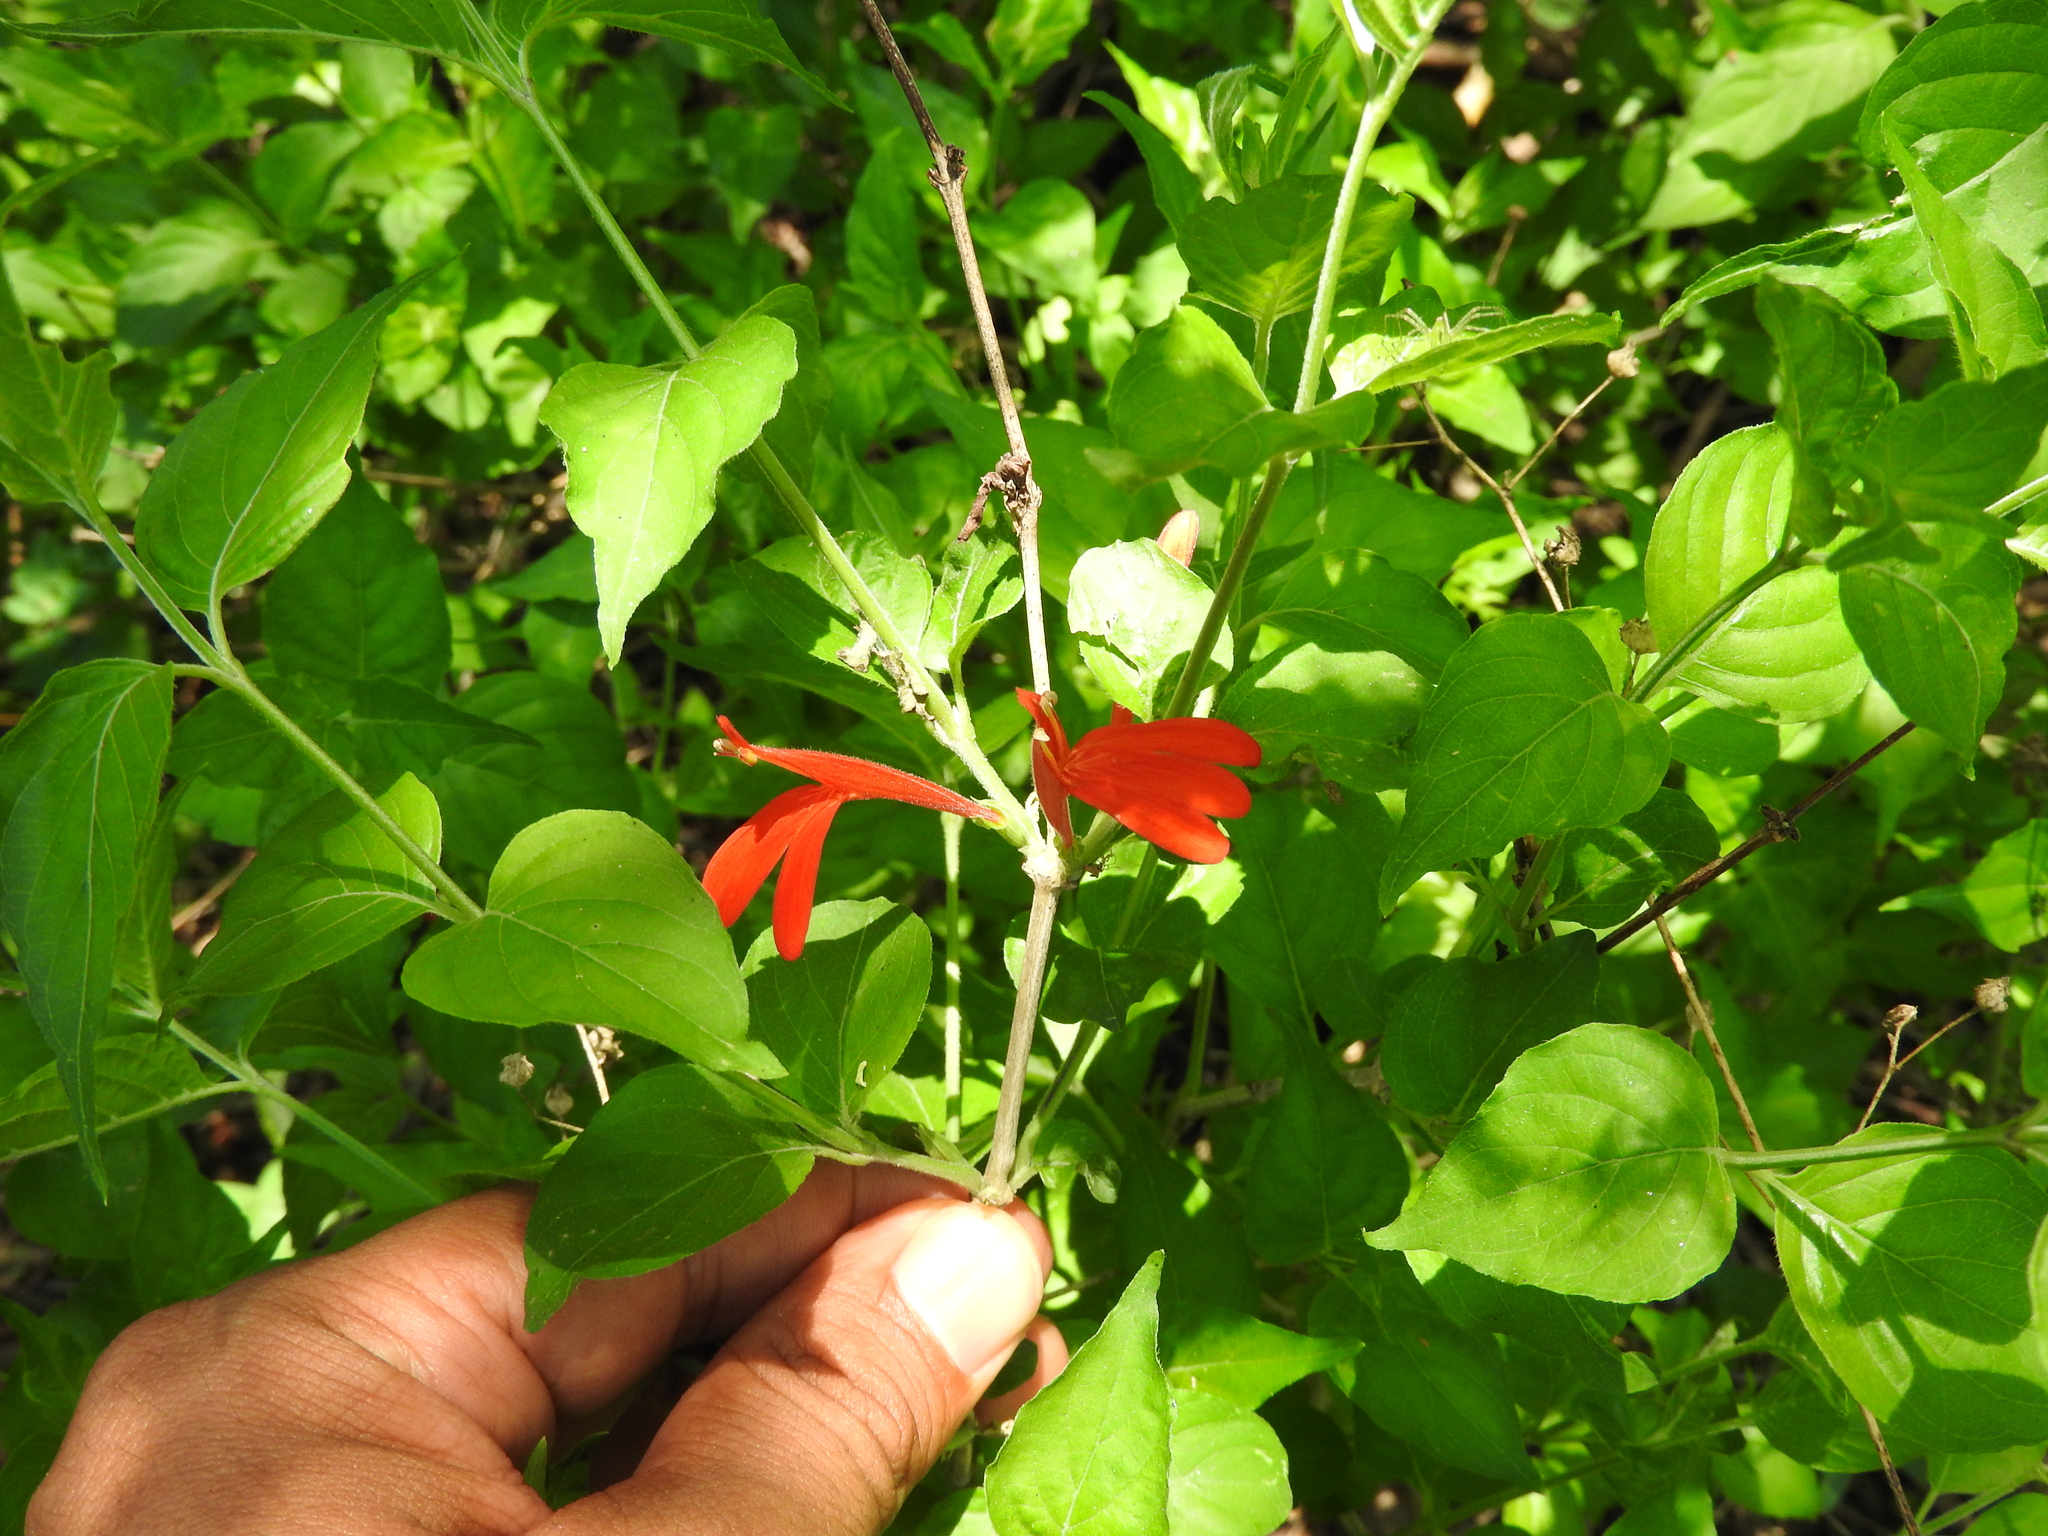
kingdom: Plantae
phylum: Tracheophyta
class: Magnoliopsida
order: Lamiales
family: Acanthaceae
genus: Dianthera
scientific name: Dianthera candicans
